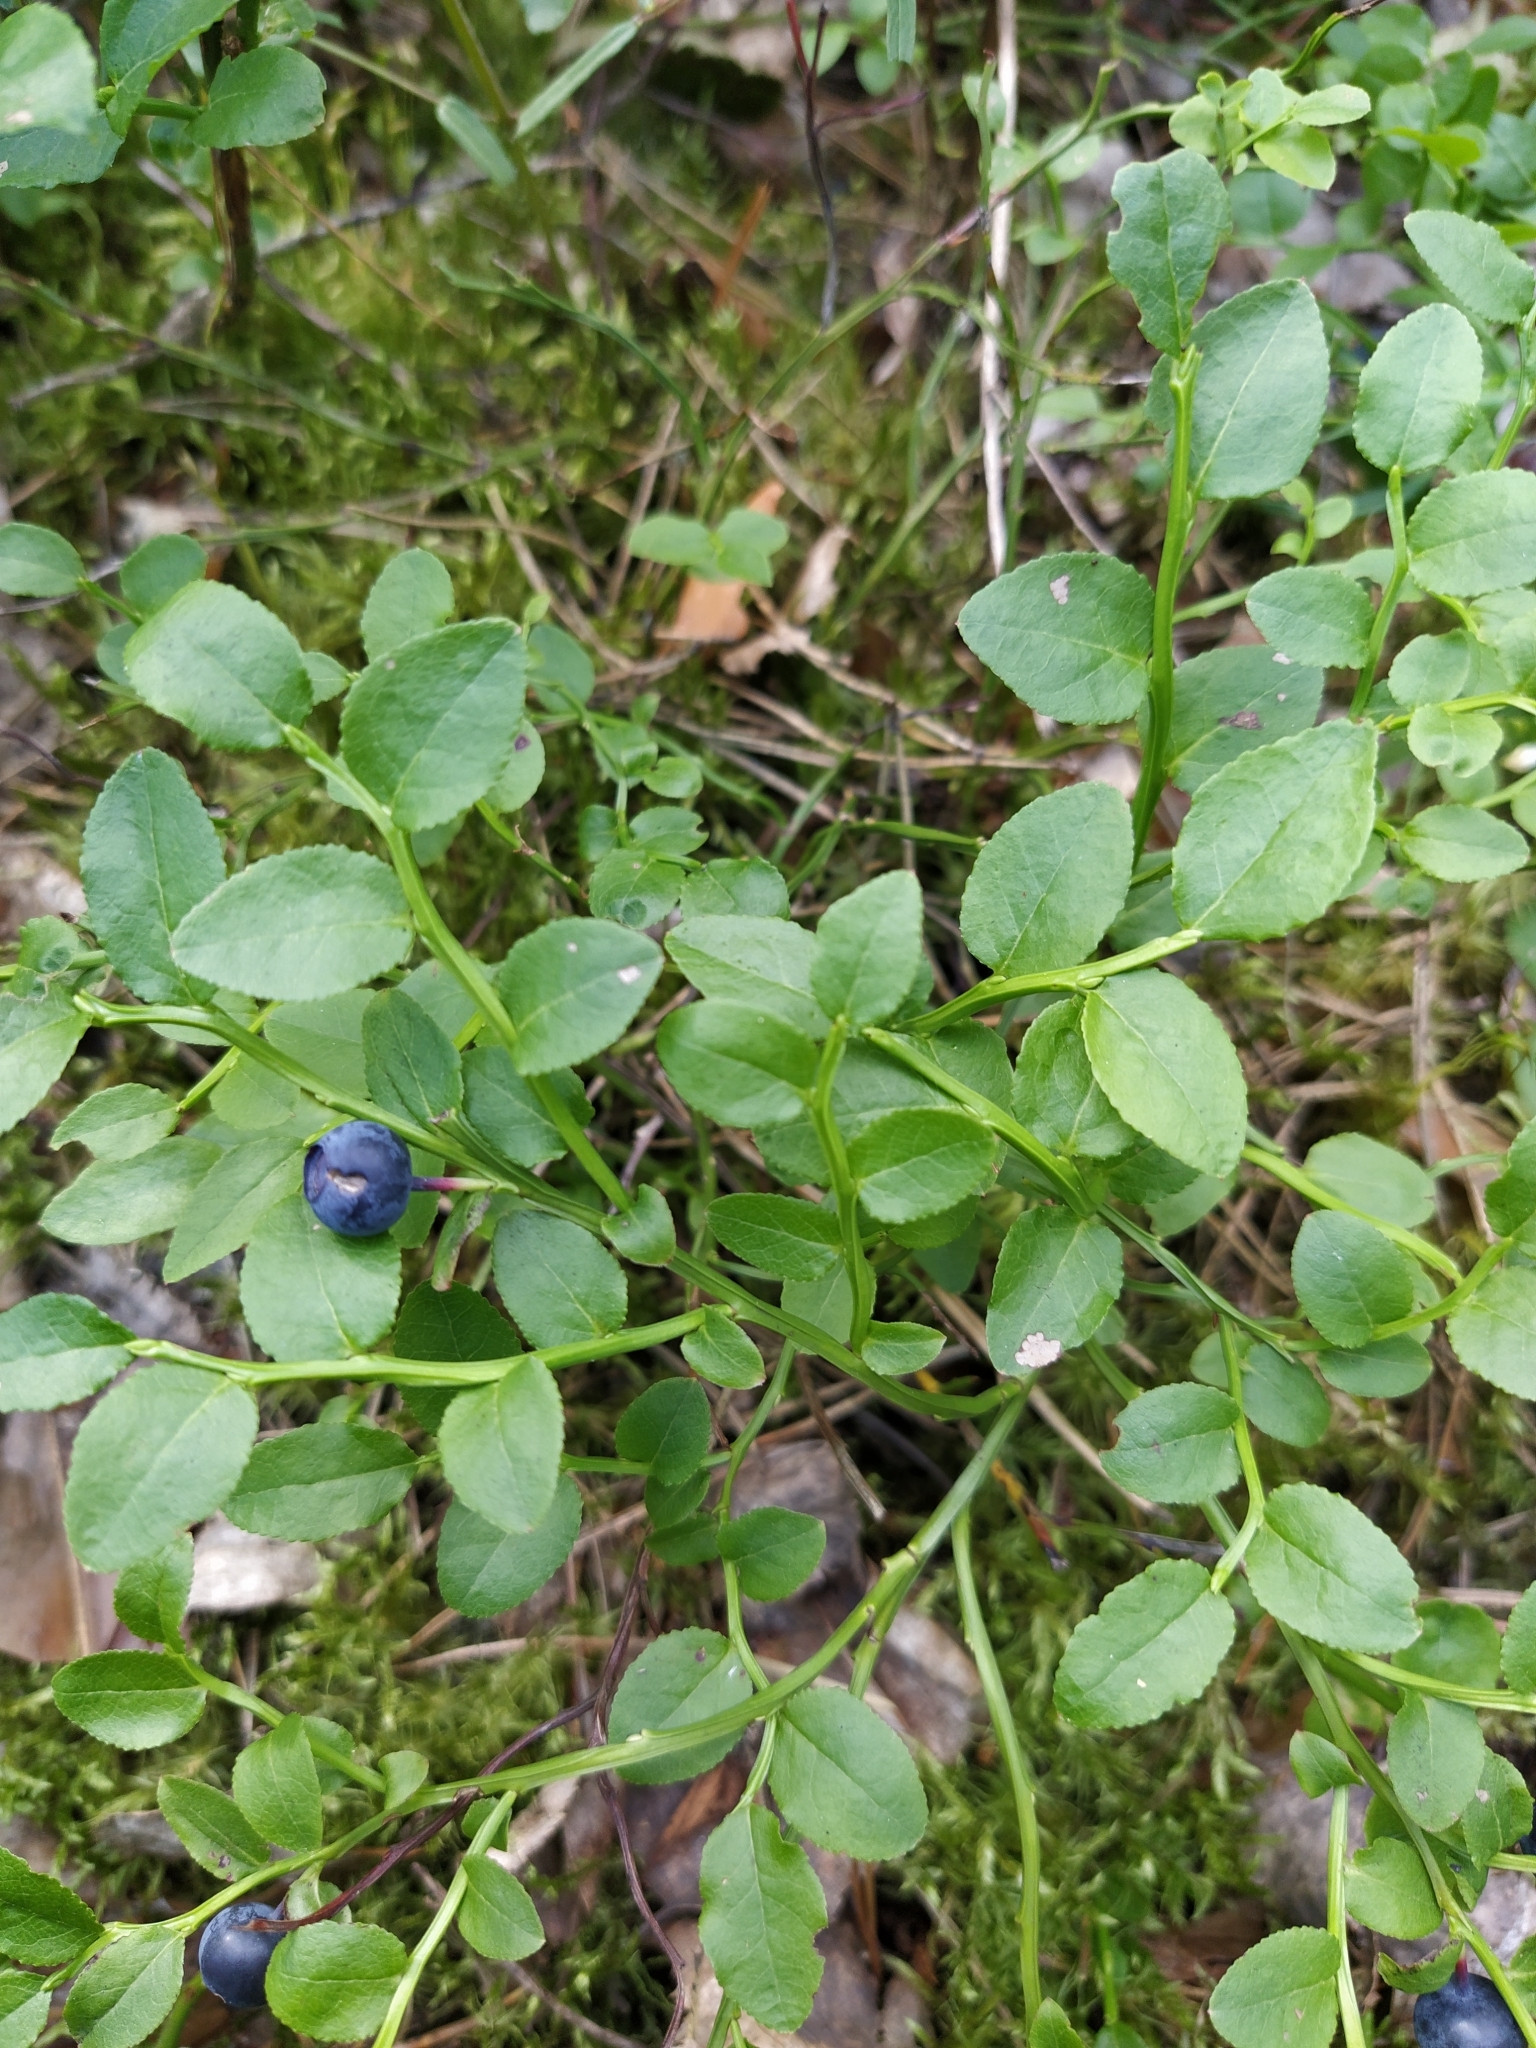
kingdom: Plantae
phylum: Tracheophyta
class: Magnoliopsida
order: Ericales
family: Ericaceae
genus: Vaccinium
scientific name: Vaccinium myrtillus
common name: Bilberry
